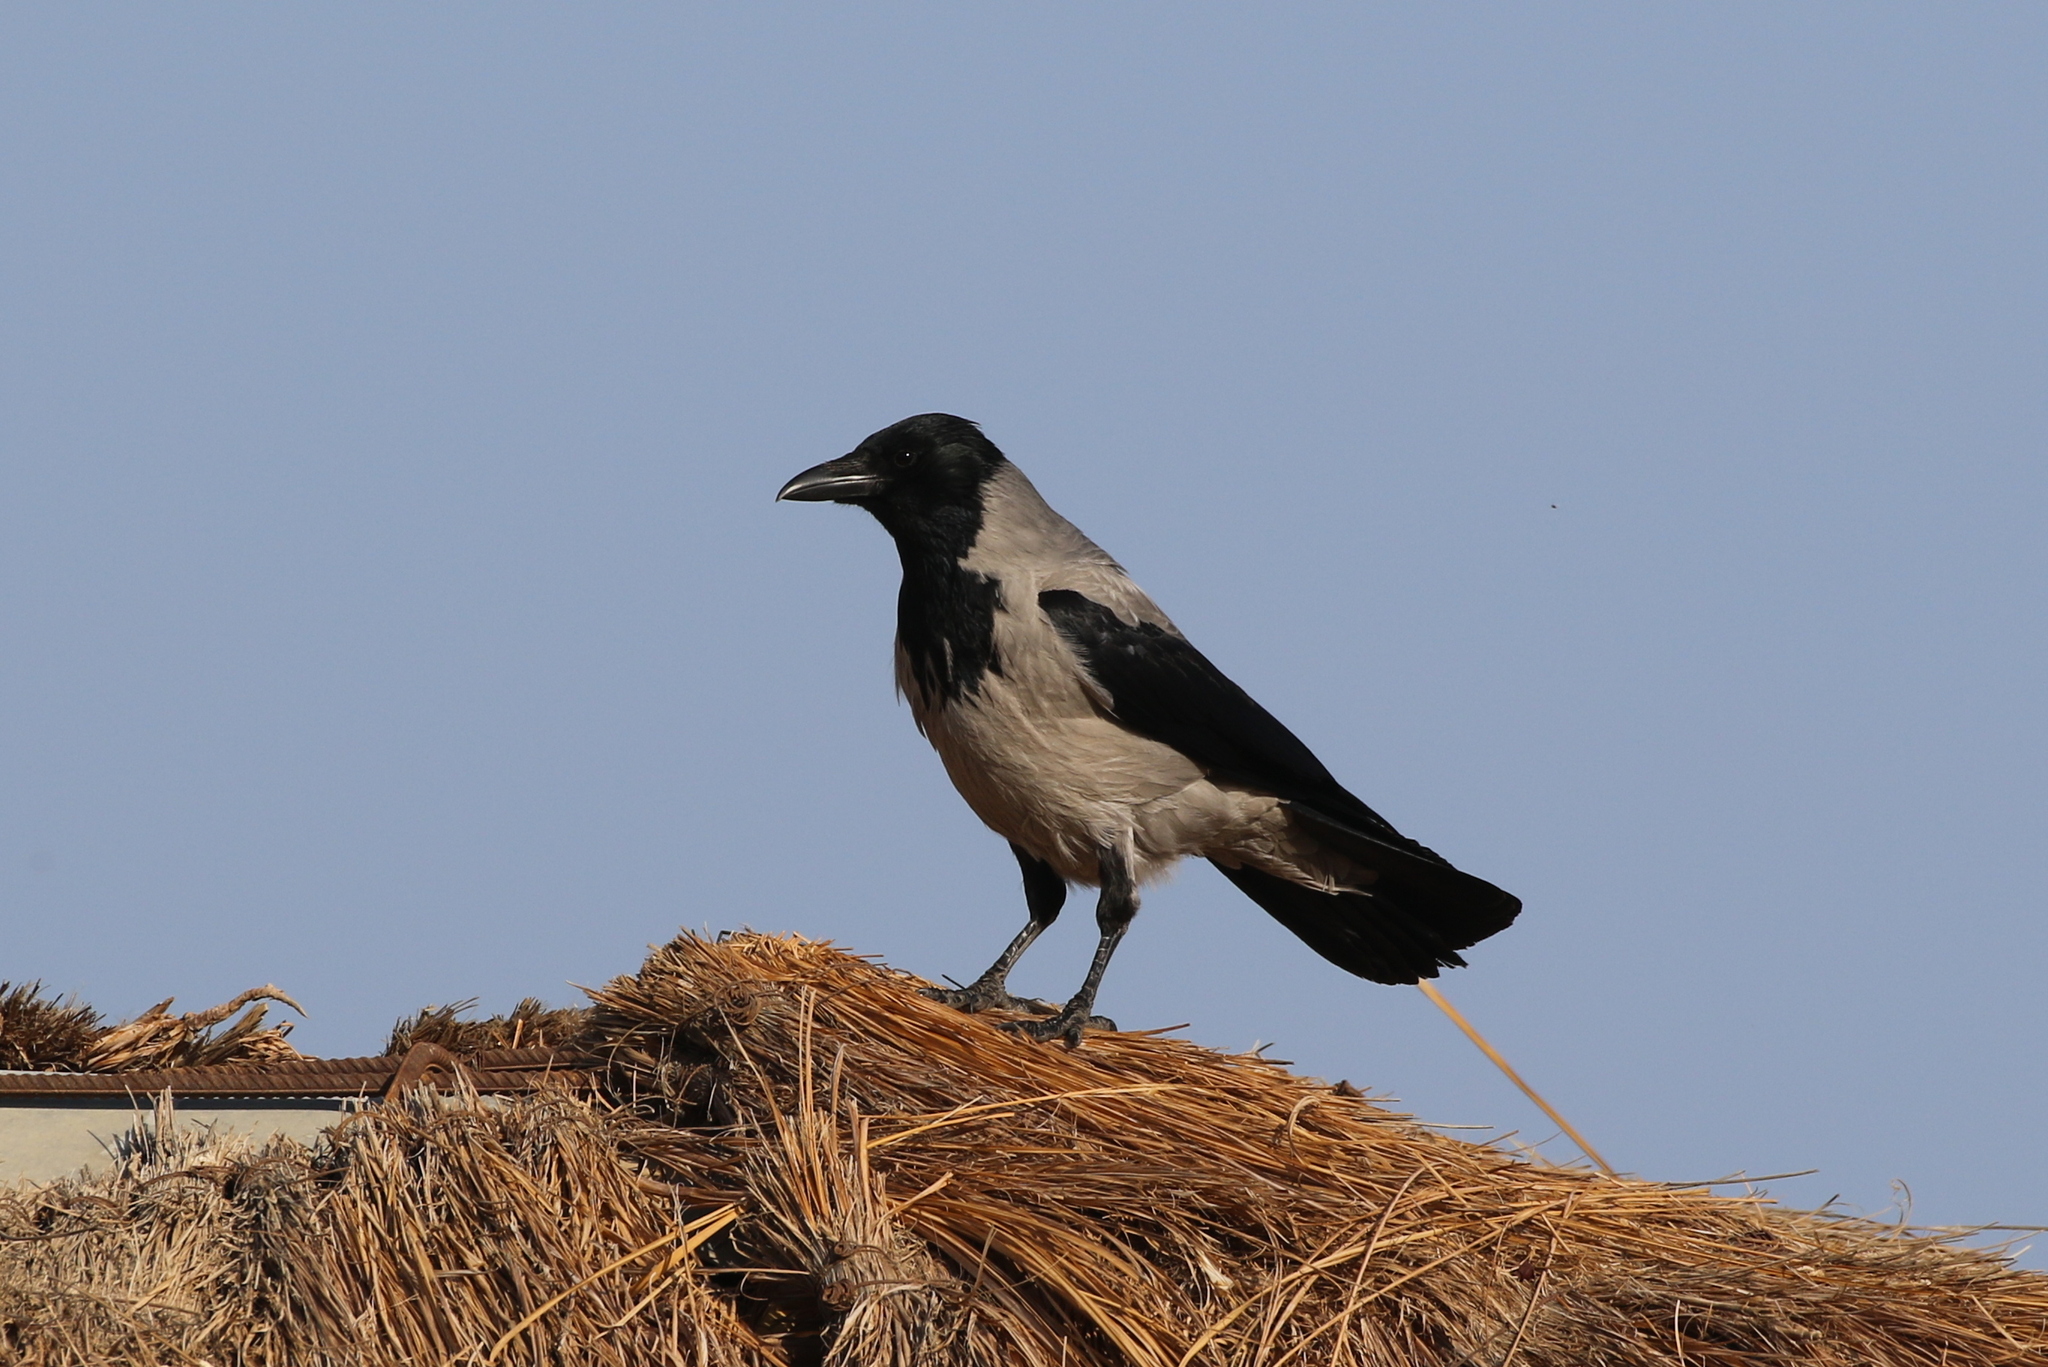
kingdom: Animalia
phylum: Chordata
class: Aves
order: Passeriformes
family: Corvidae
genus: Corvus
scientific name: Corvus cornix
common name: Hooded crow
